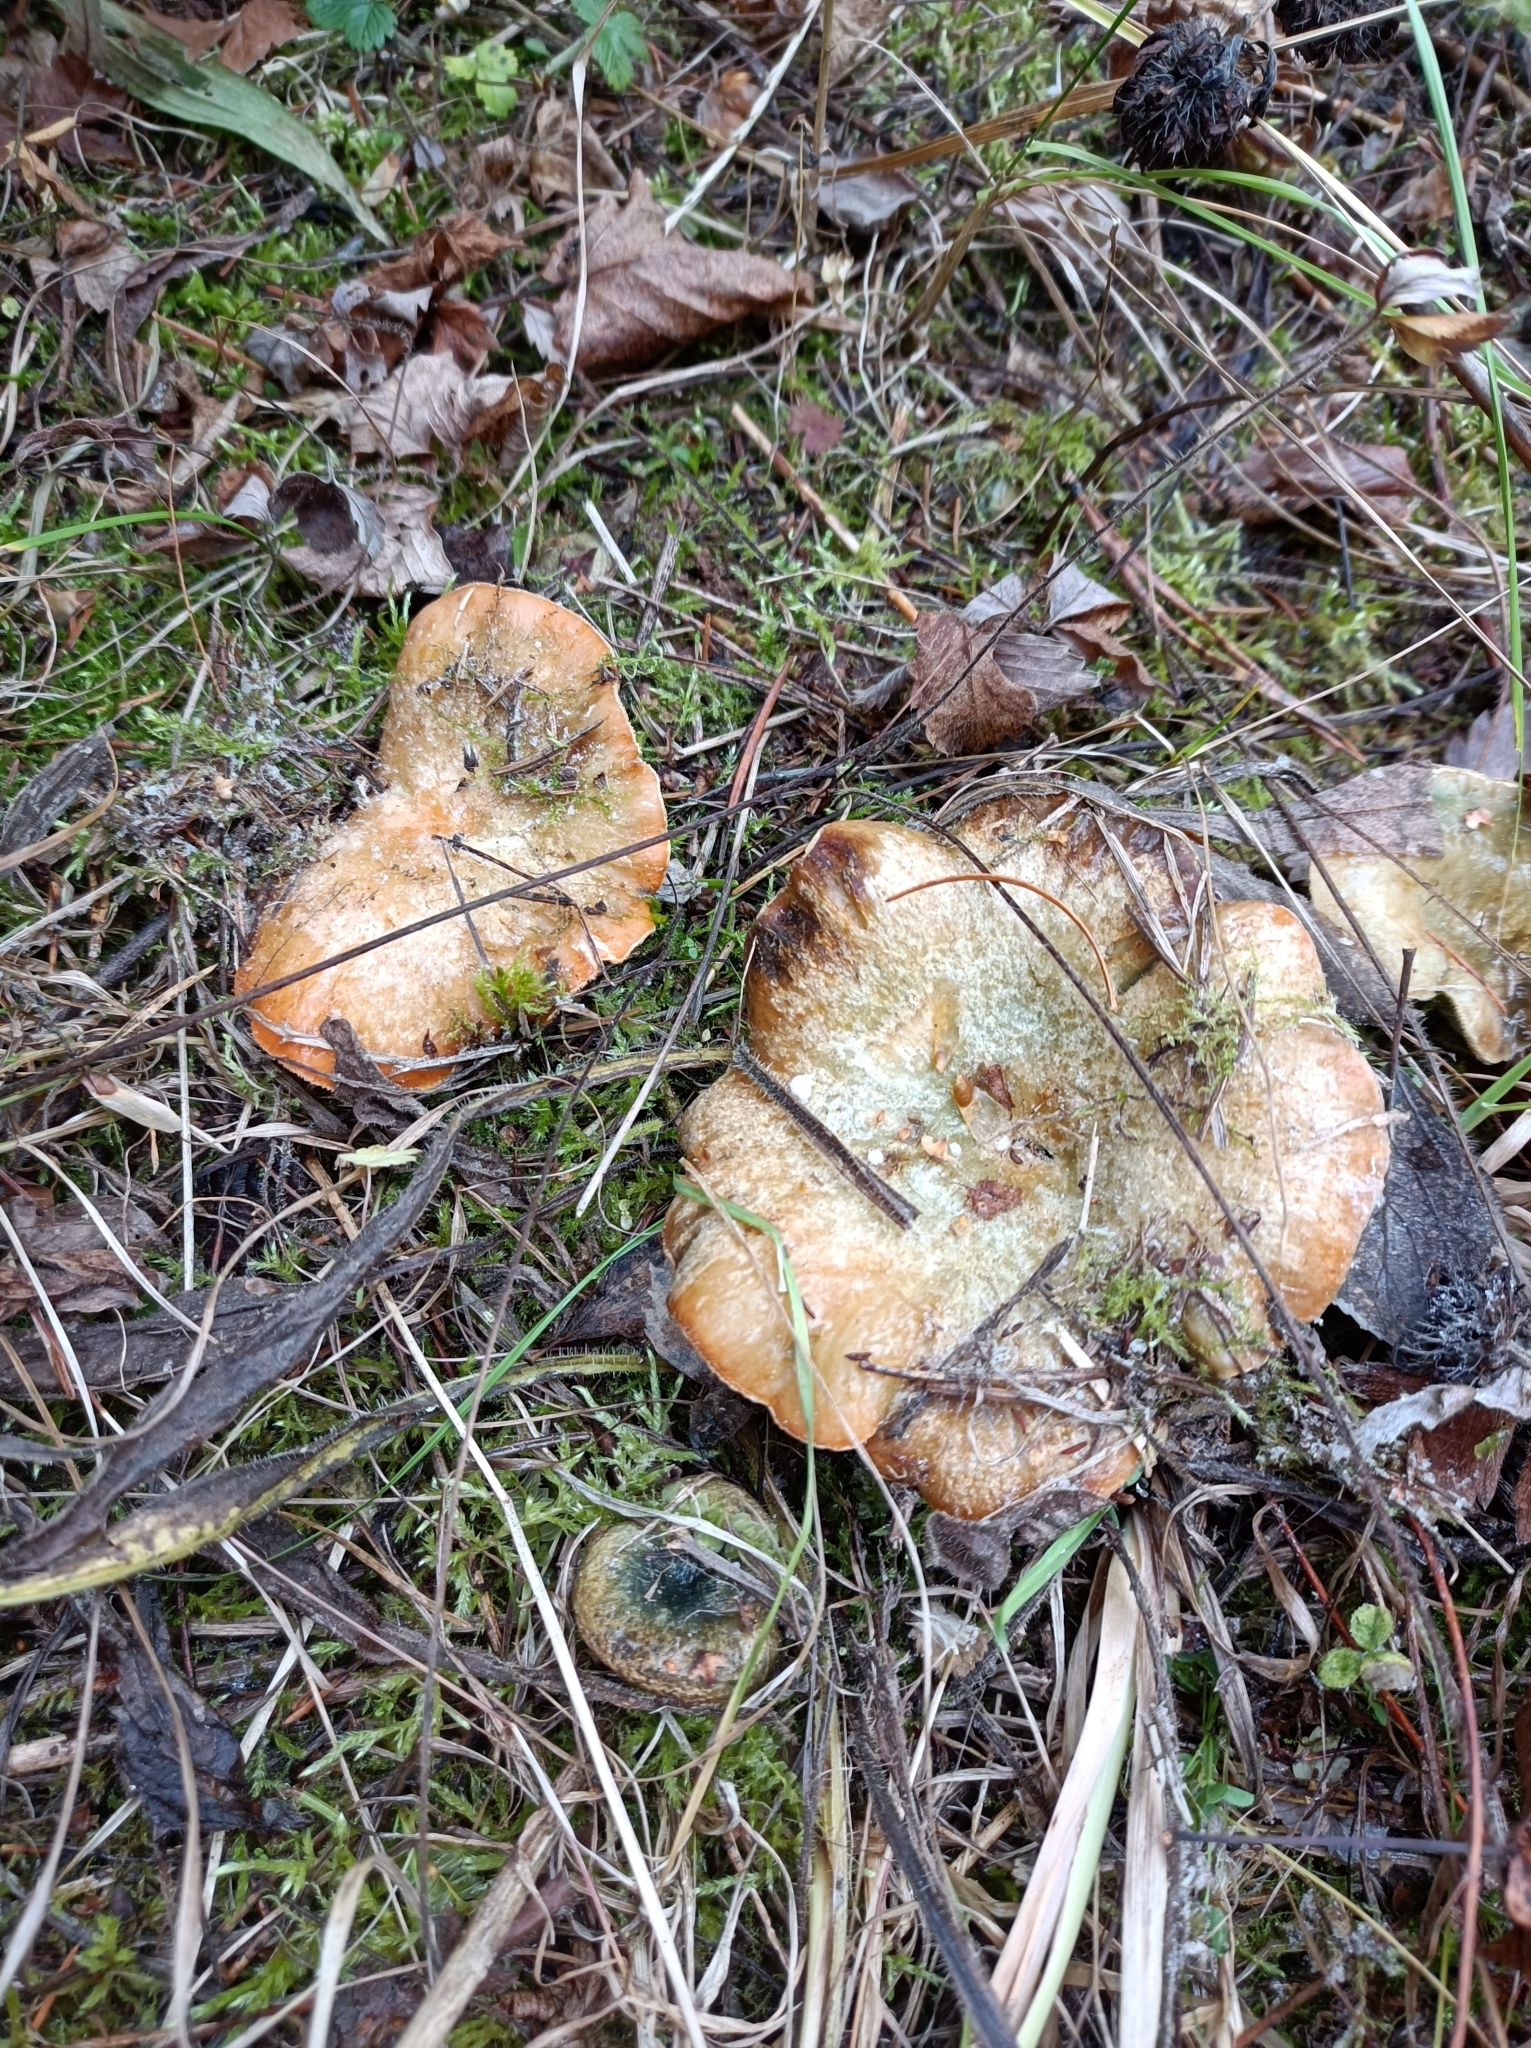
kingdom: Fungi
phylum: Basidiomycota
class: Agaricomycetes
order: Russulales
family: Russulaceae
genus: Lactarius
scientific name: Lactarius deterrimus
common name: False saffron milkcap
